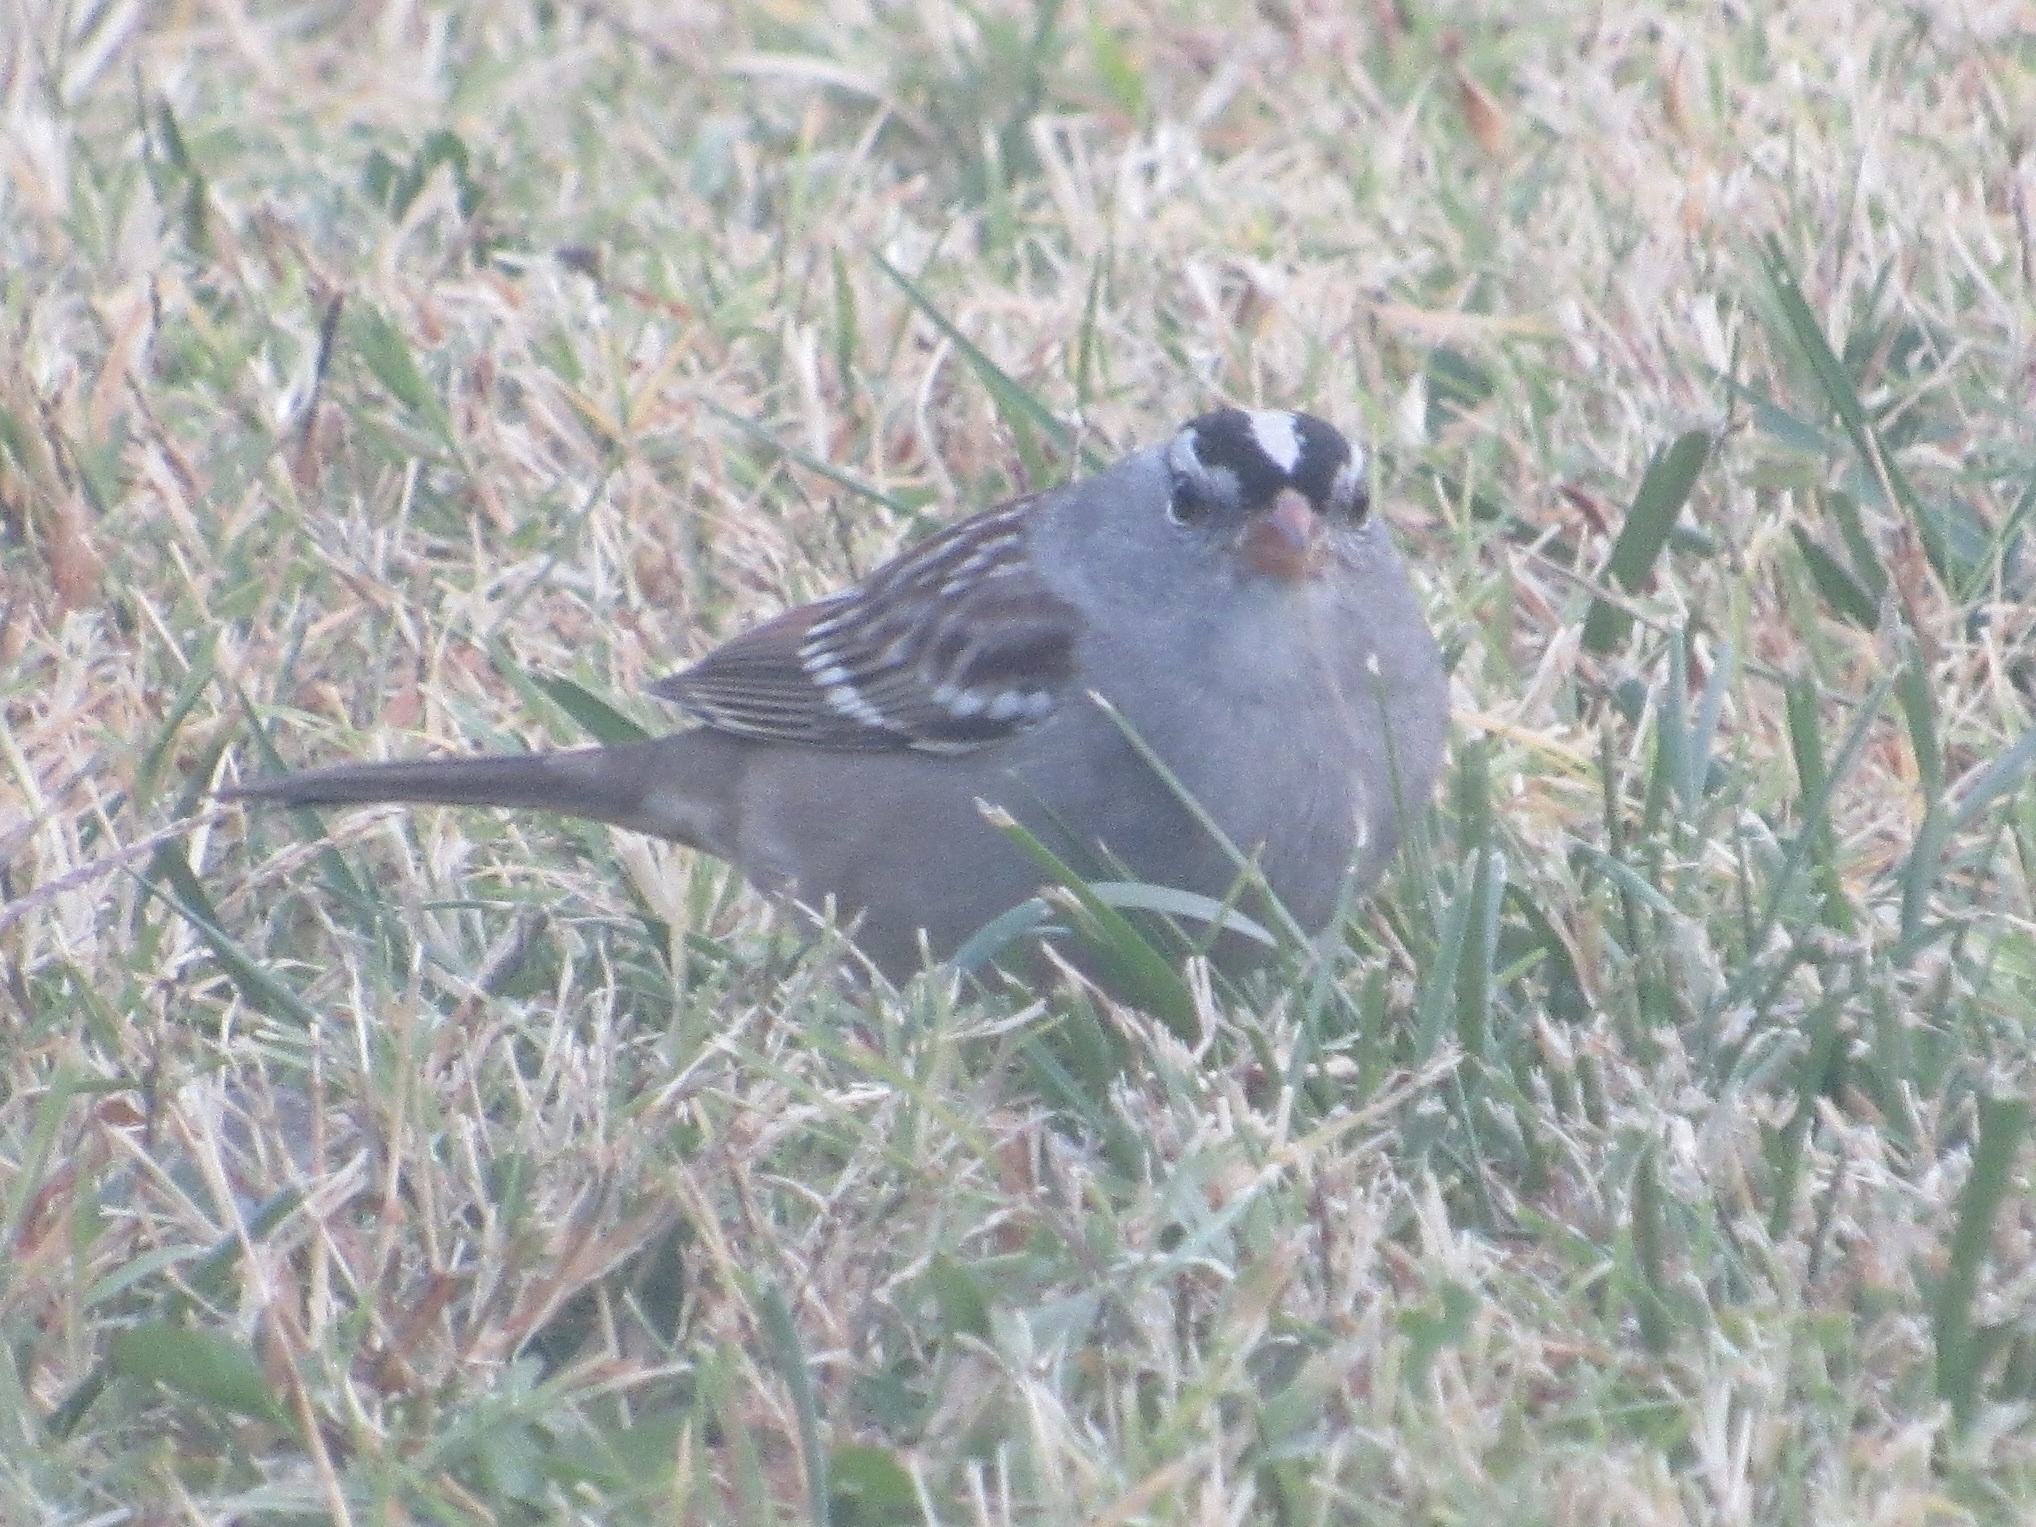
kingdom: Animalia
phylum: Chordata
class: Aves
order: Passeriformes
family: Passerellidae
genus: Zonotrichia
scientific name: Zonotrichia leucophrys
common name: White-crowned sparrow
